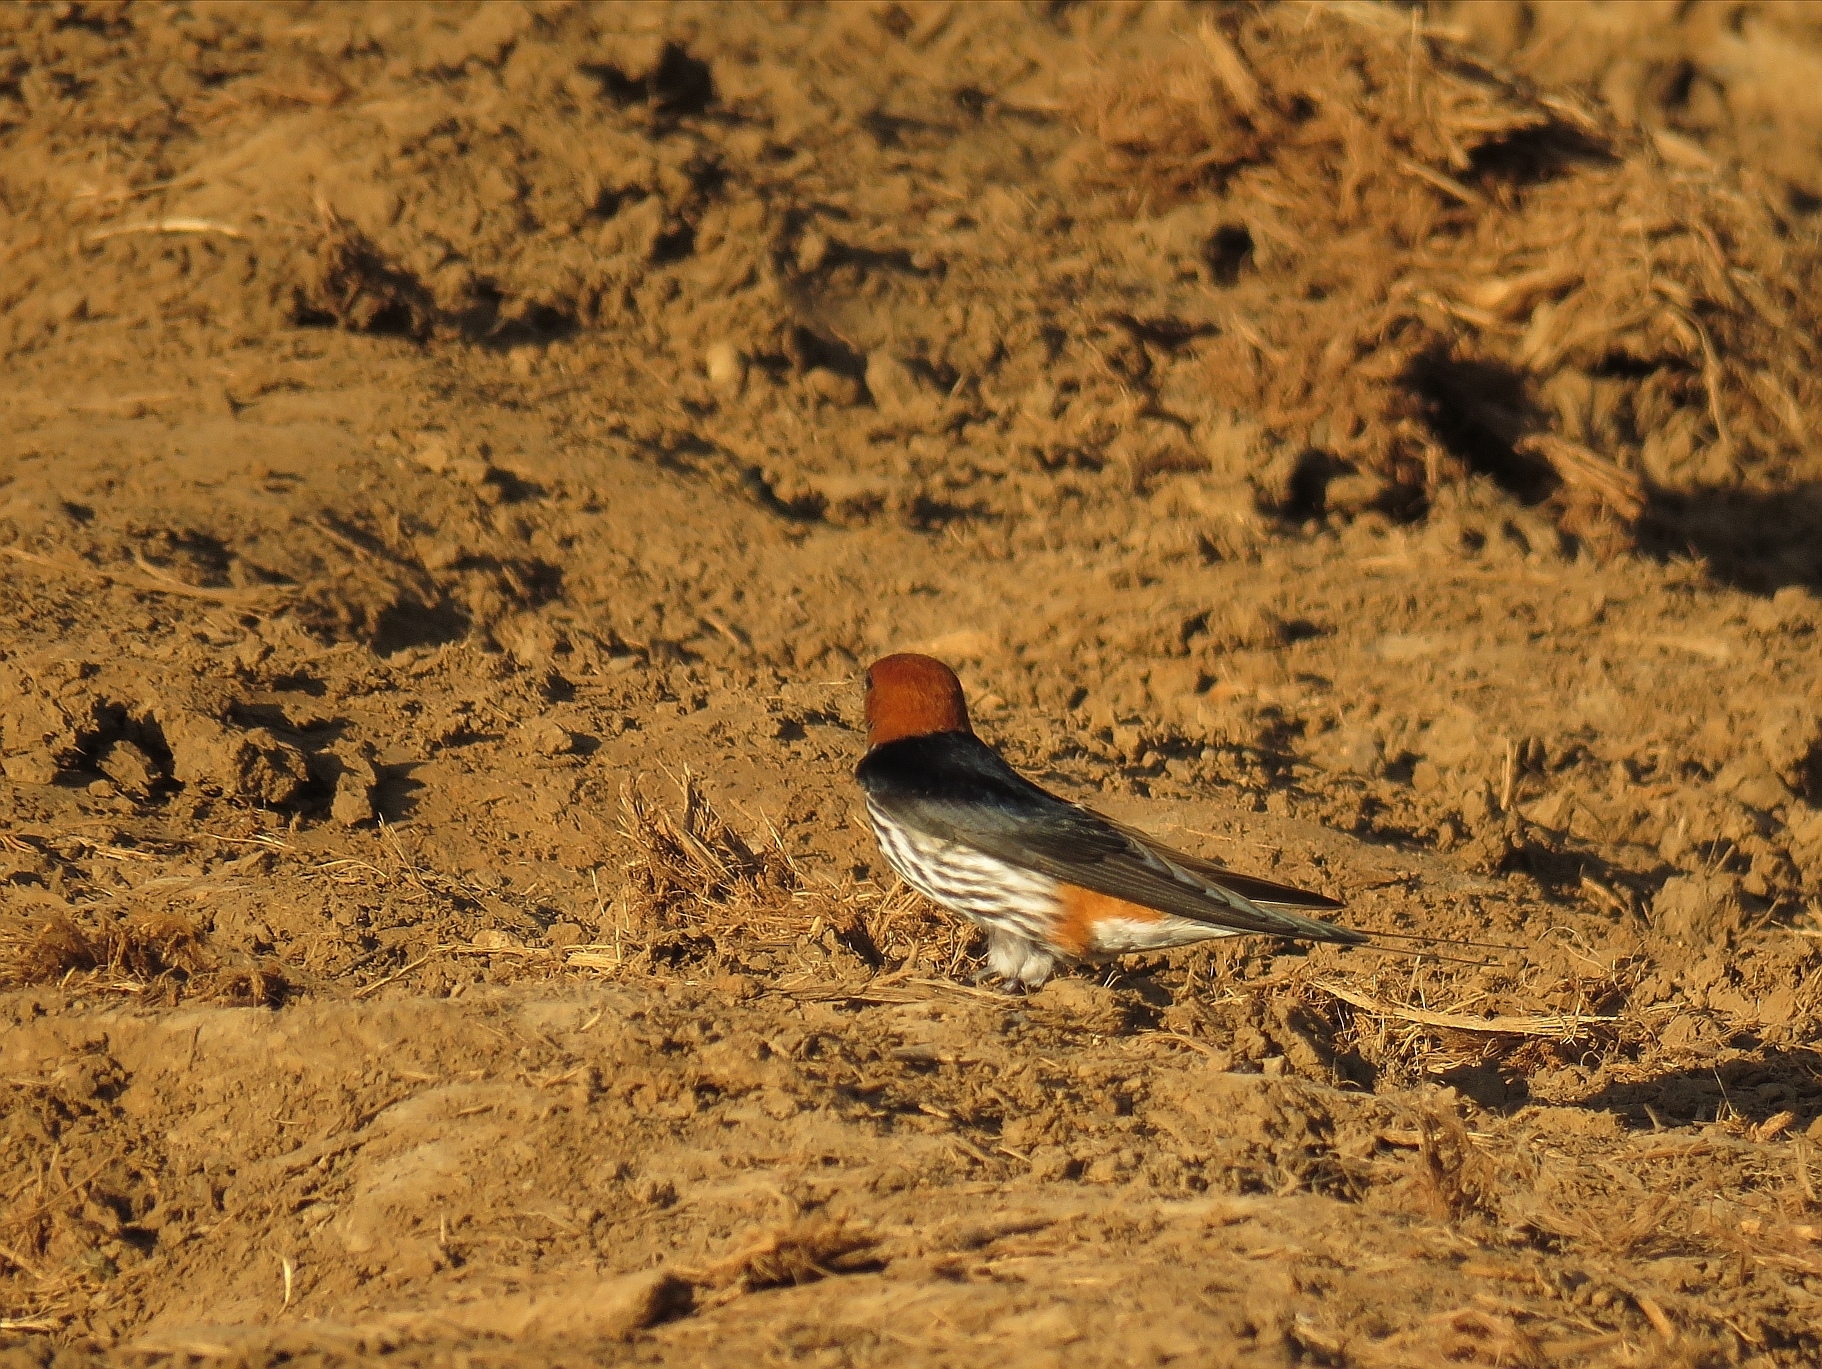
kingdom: Animalia
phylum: Chordata
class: Aves
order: Passeriformes
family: Hirundinidae
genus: Cecropis
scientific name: Cecropis abyssinica
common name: Lesser striped-swallow
